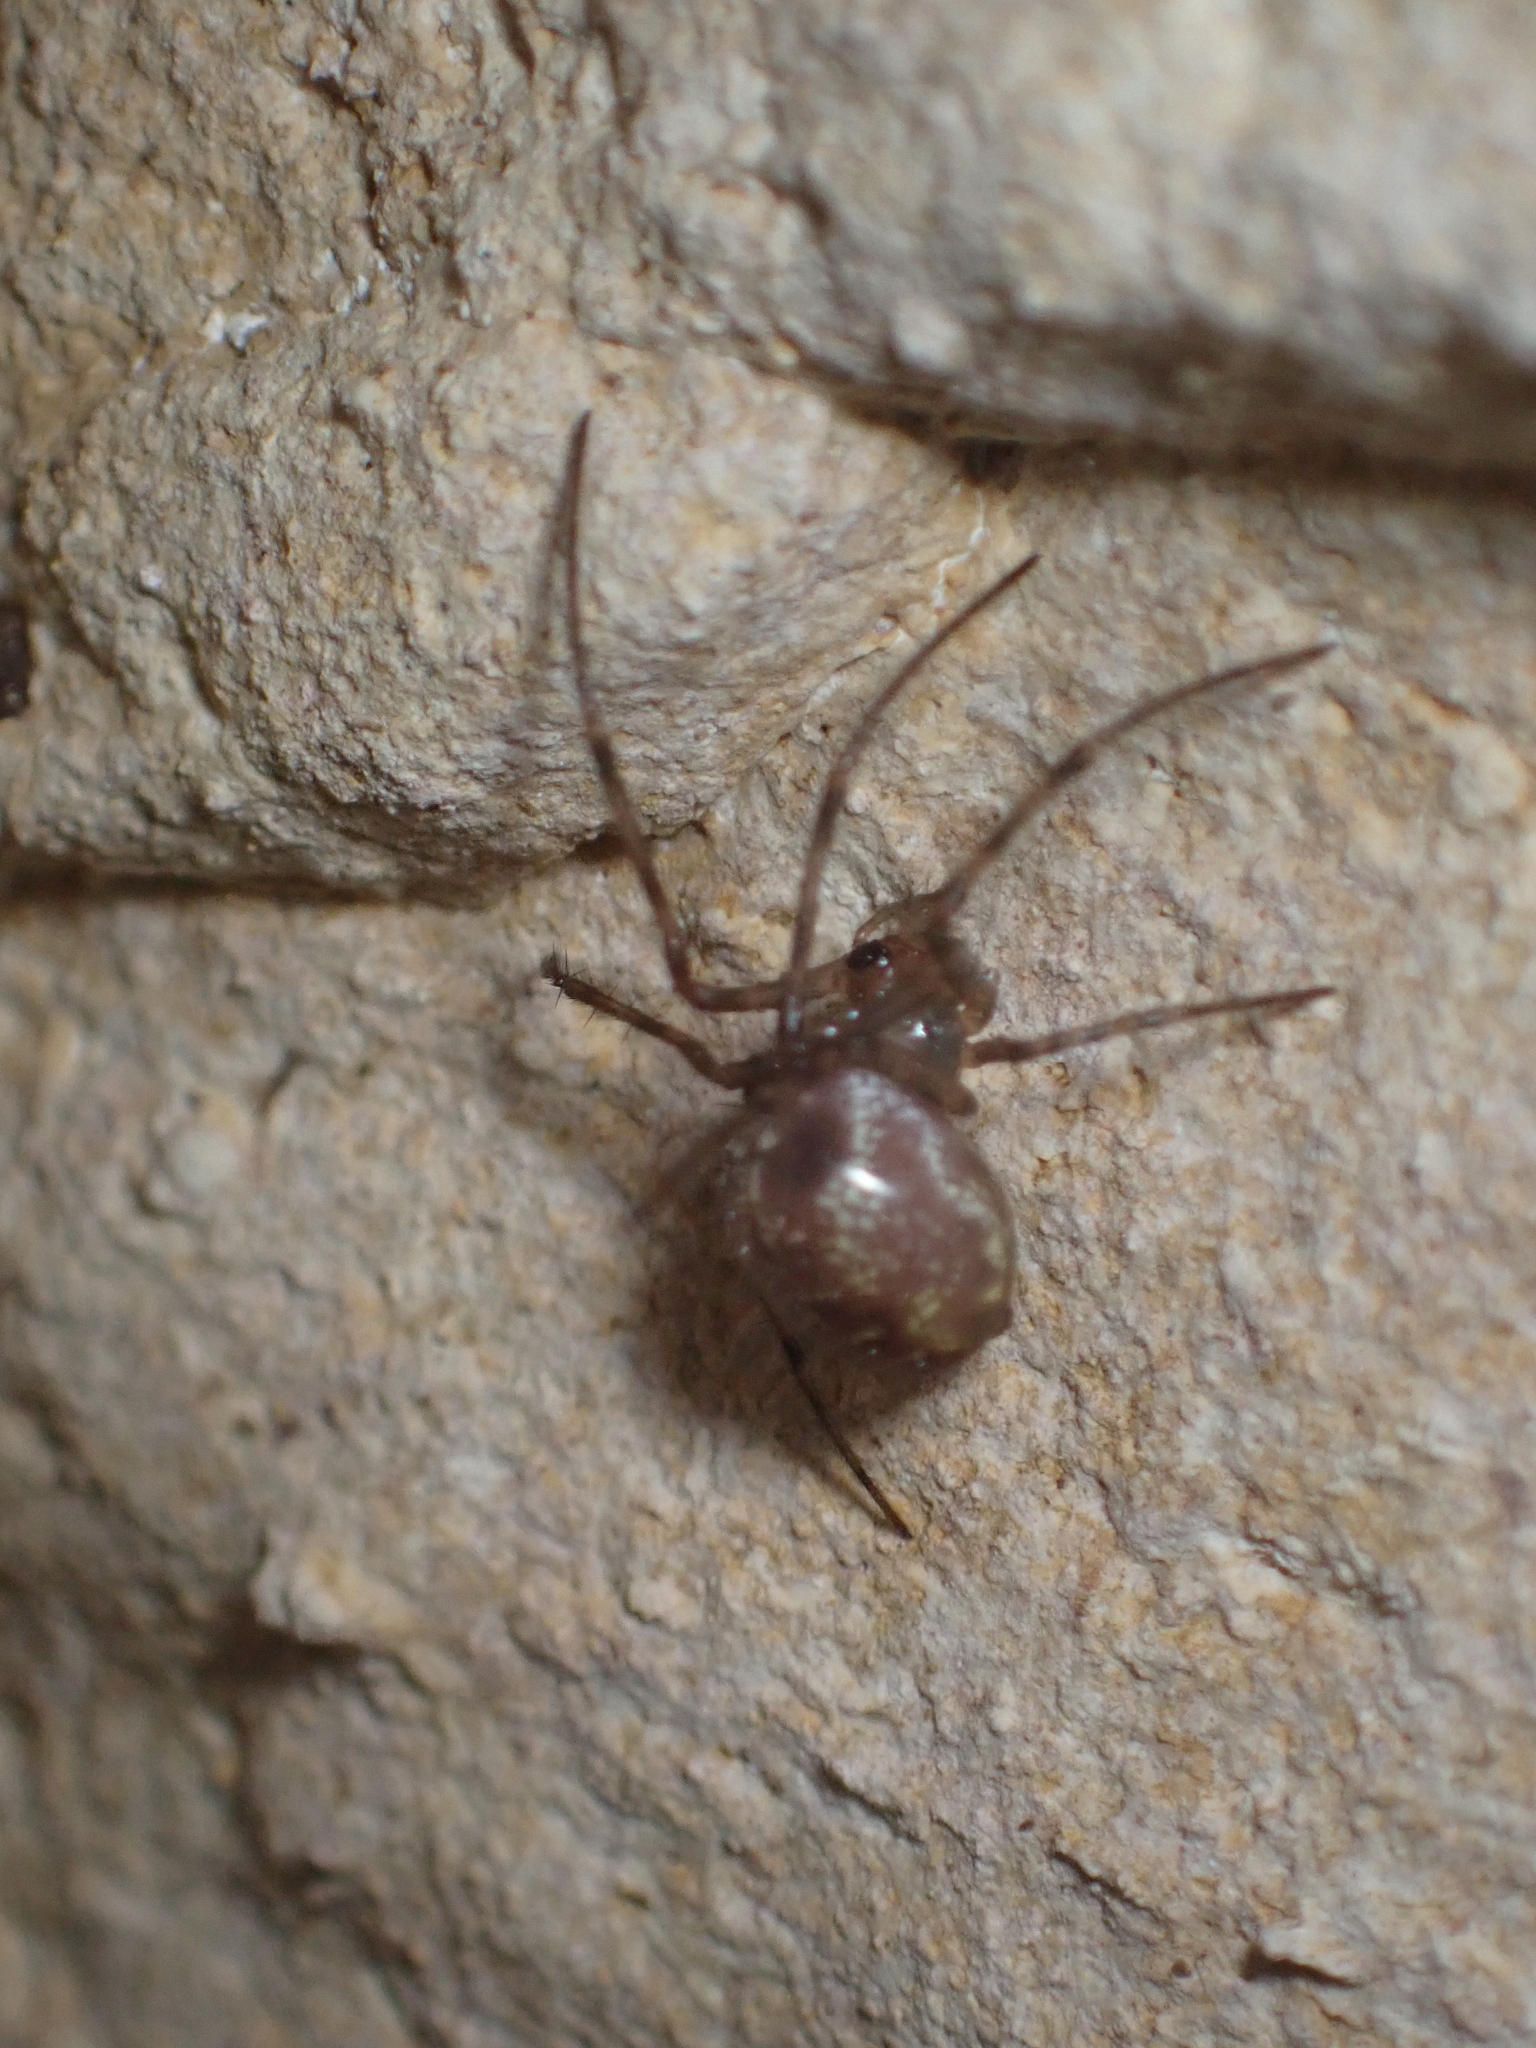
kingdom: Animalia
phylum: Arthropoda
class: Arachnida
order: Araneae
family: Tetragnathidae
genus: Meta
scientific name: Meta menardi
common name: Cave spider
